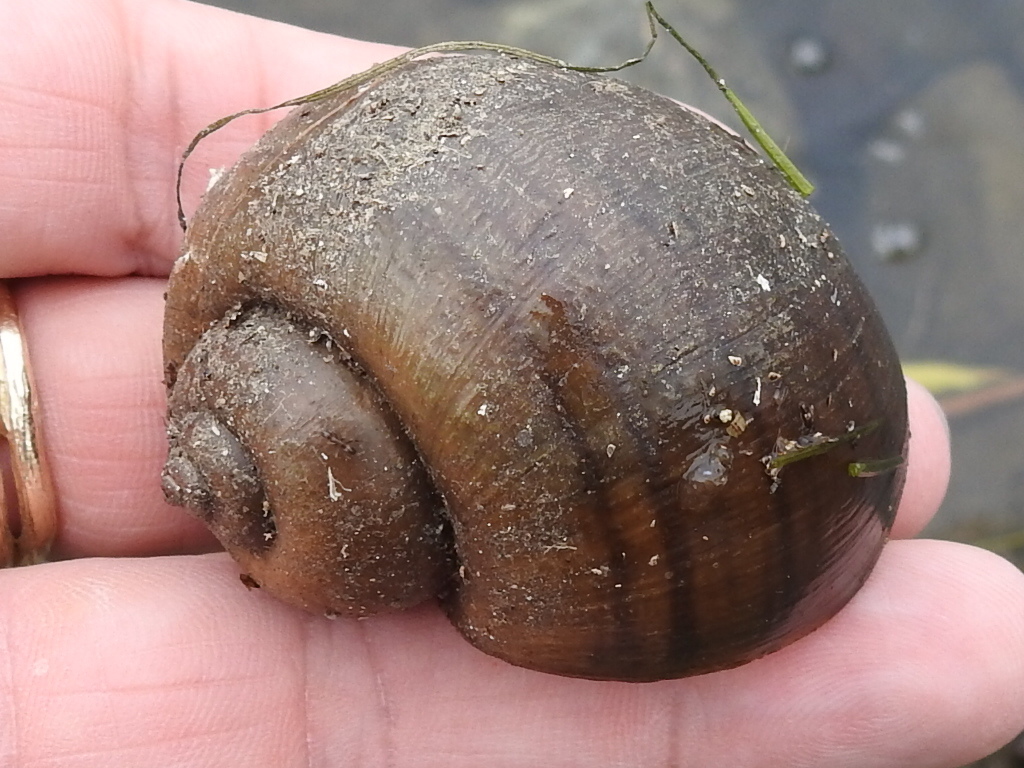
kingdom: Animalia
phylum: Mollusca
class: Gastropoda
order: Architaenioglossa
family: Ampullariidae
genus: Pomacea
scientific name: Pomacea canaliculata
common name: Channeled applesnail
